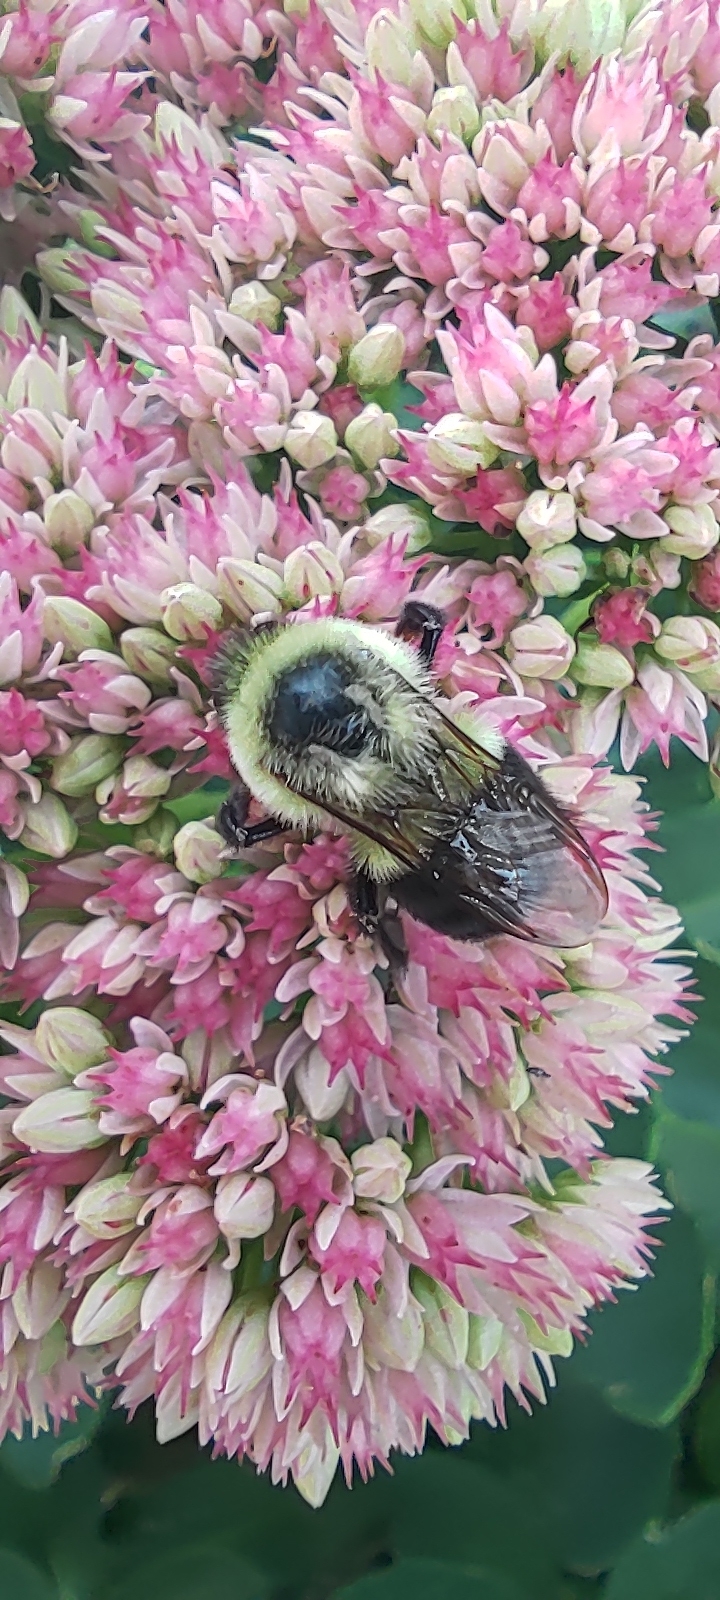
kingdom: Animalia
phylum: Arthropoda
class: Insecta
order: Hymenoptera
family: Apidae
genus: Bombus
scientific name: Bombus impatiens
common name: Common eastern bumble bee
